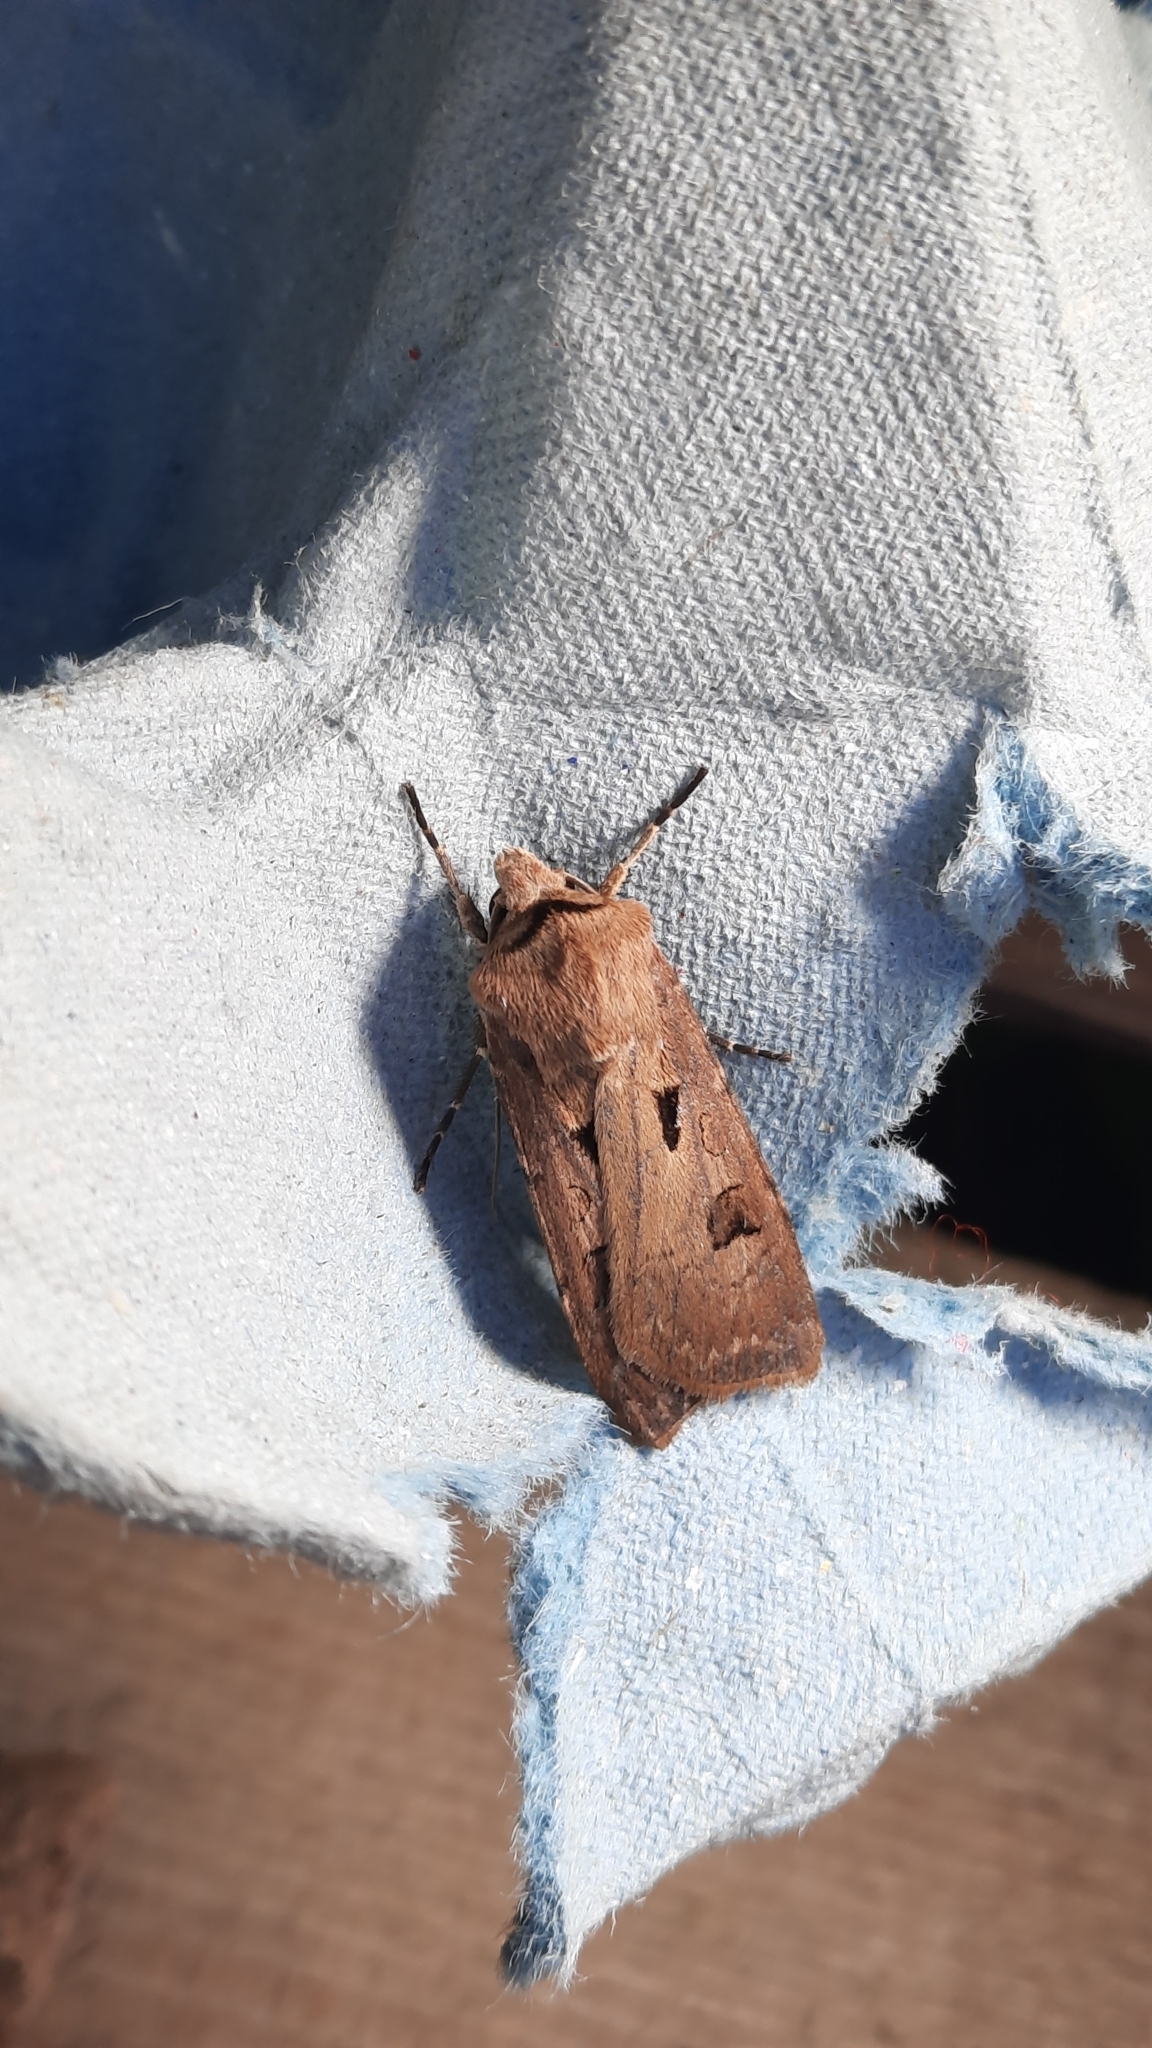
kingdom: Animalia
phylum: Arthropoda
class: Insecta
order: Lepidoptera
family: Noctuidae
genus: Agrotis
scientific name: Agrotis exclamationis
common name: Heart and dart
